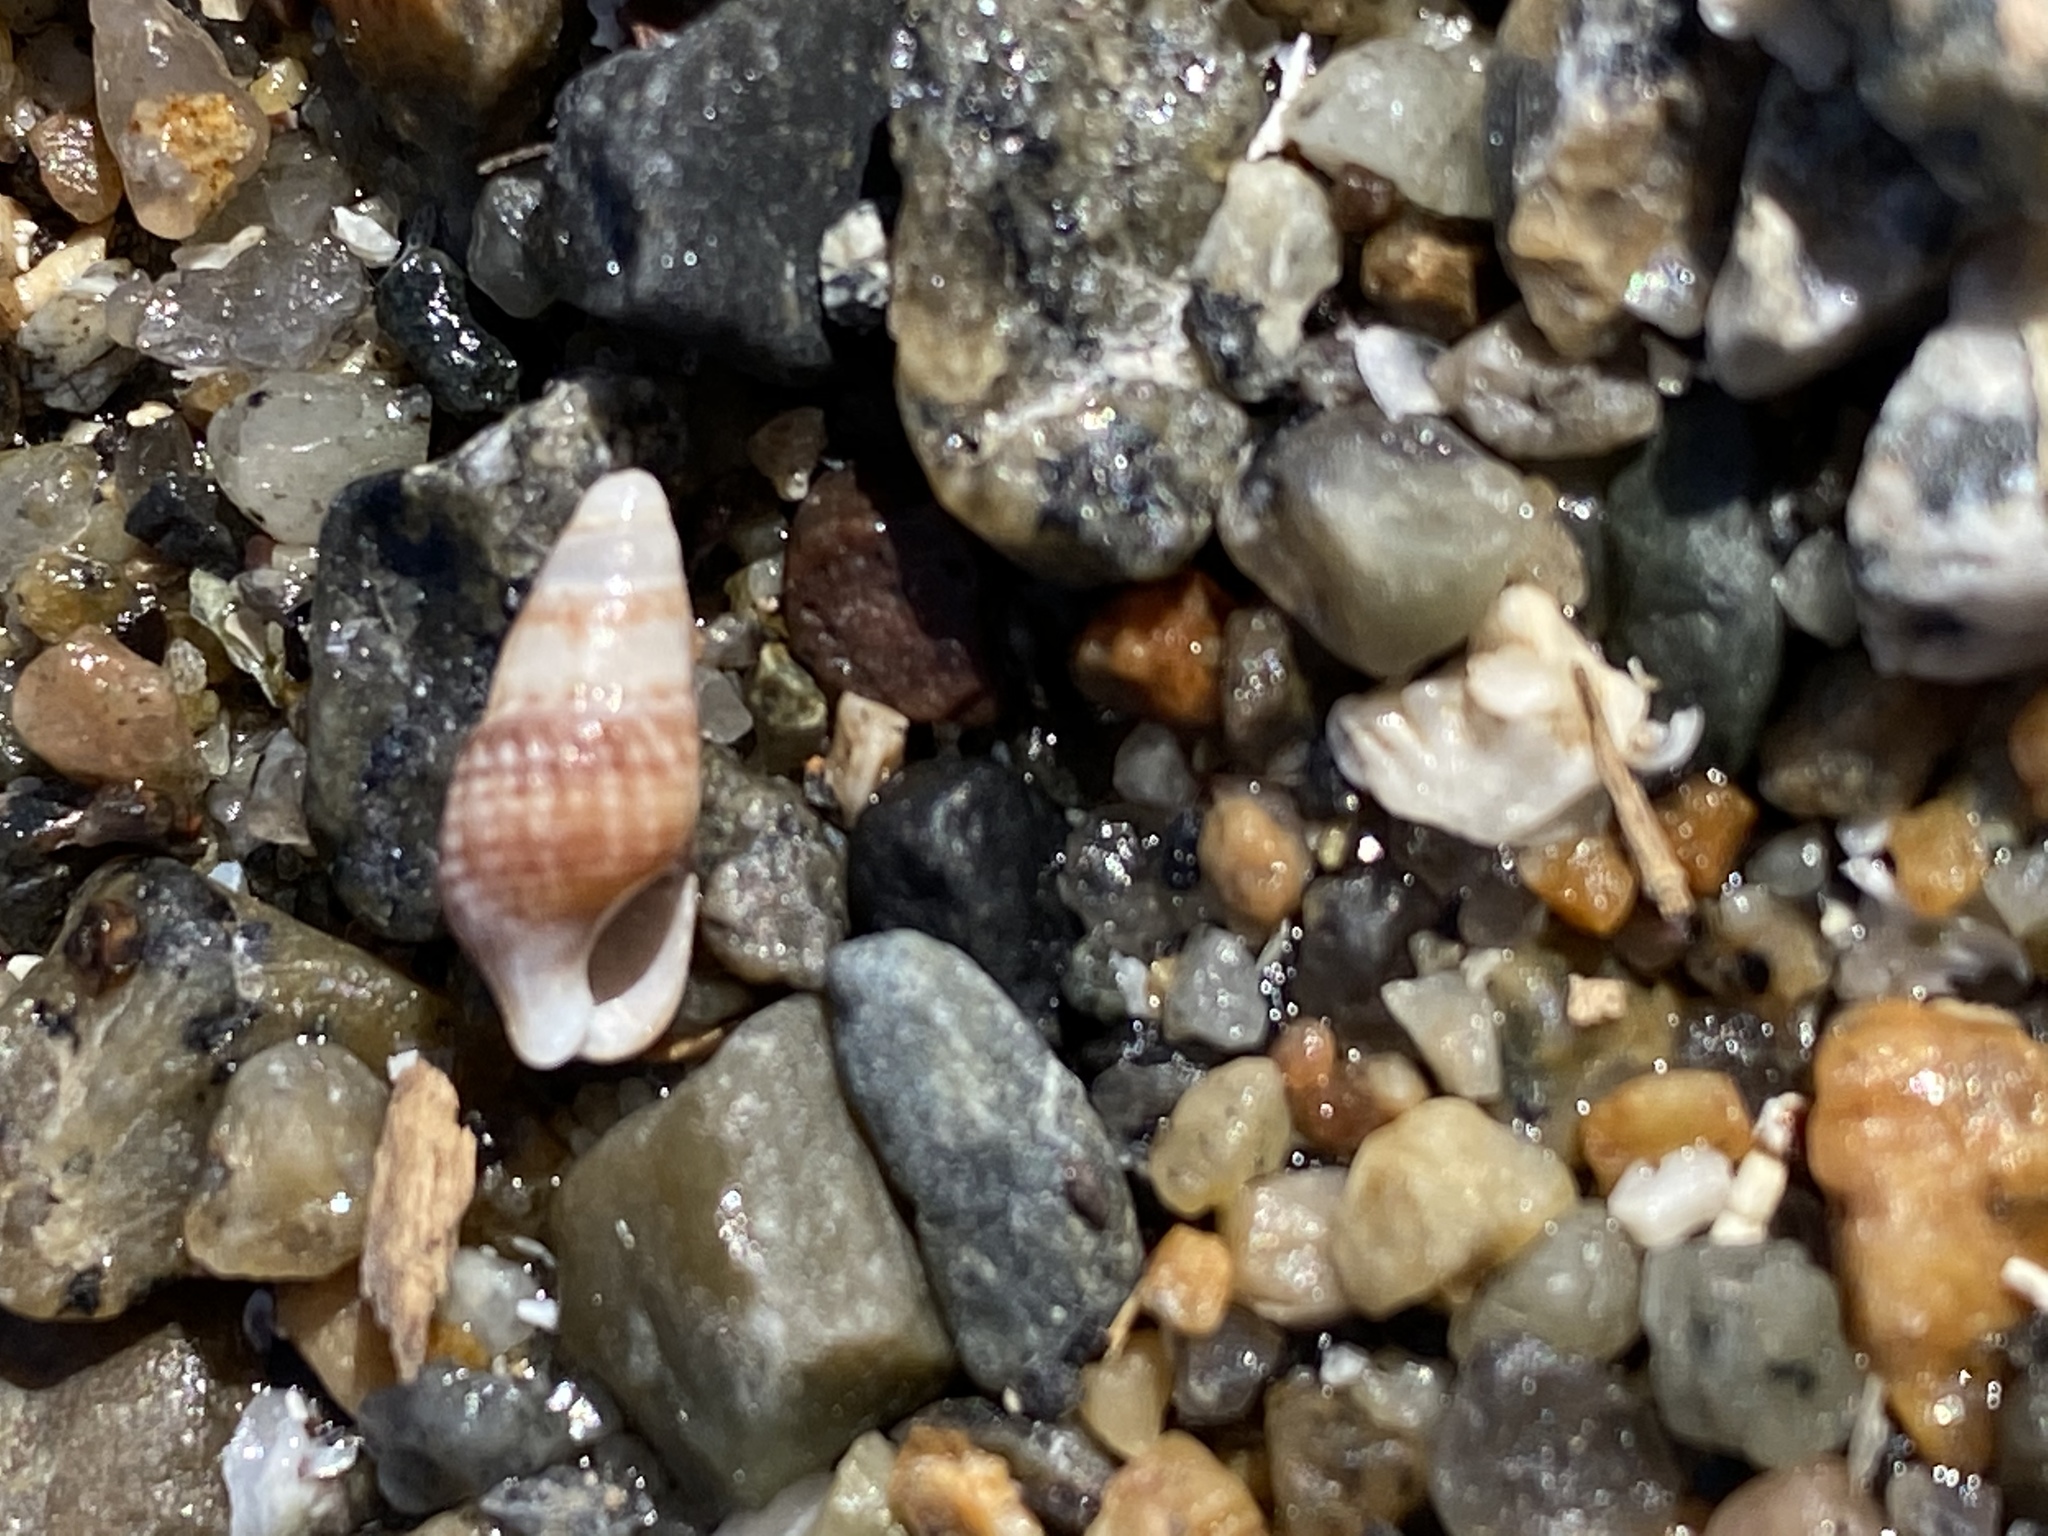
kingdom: Animalia
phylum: Mollusca
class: Gastropoda
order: Neogastropoda
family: Nassariidae
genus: Ilyanassa
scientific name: Ilyanassa trivittata
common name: Three-line mudsnail
